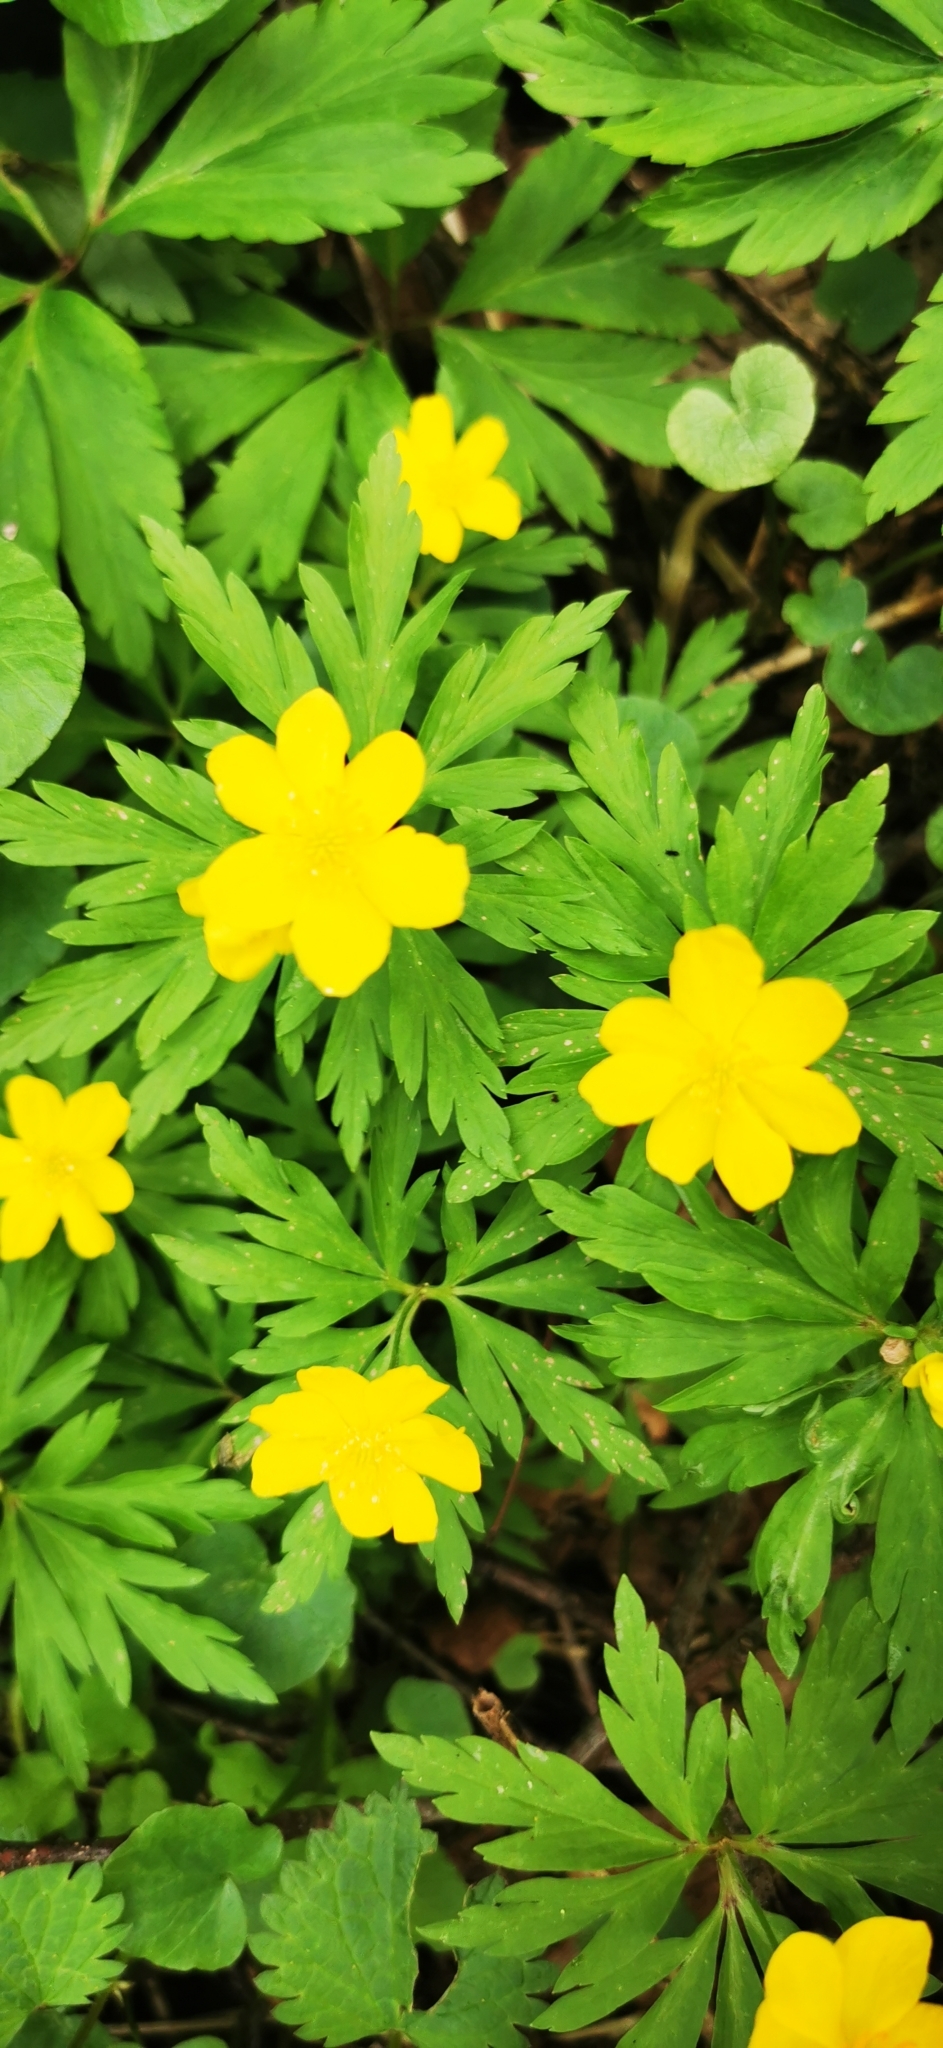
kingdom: Plantae
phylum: Tracheophyta
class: Magnoliopsida
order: Ranunculales
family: Ranunculaceae
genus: Anemone
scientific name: Anemone ranunculoides
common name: Yellow anemone
